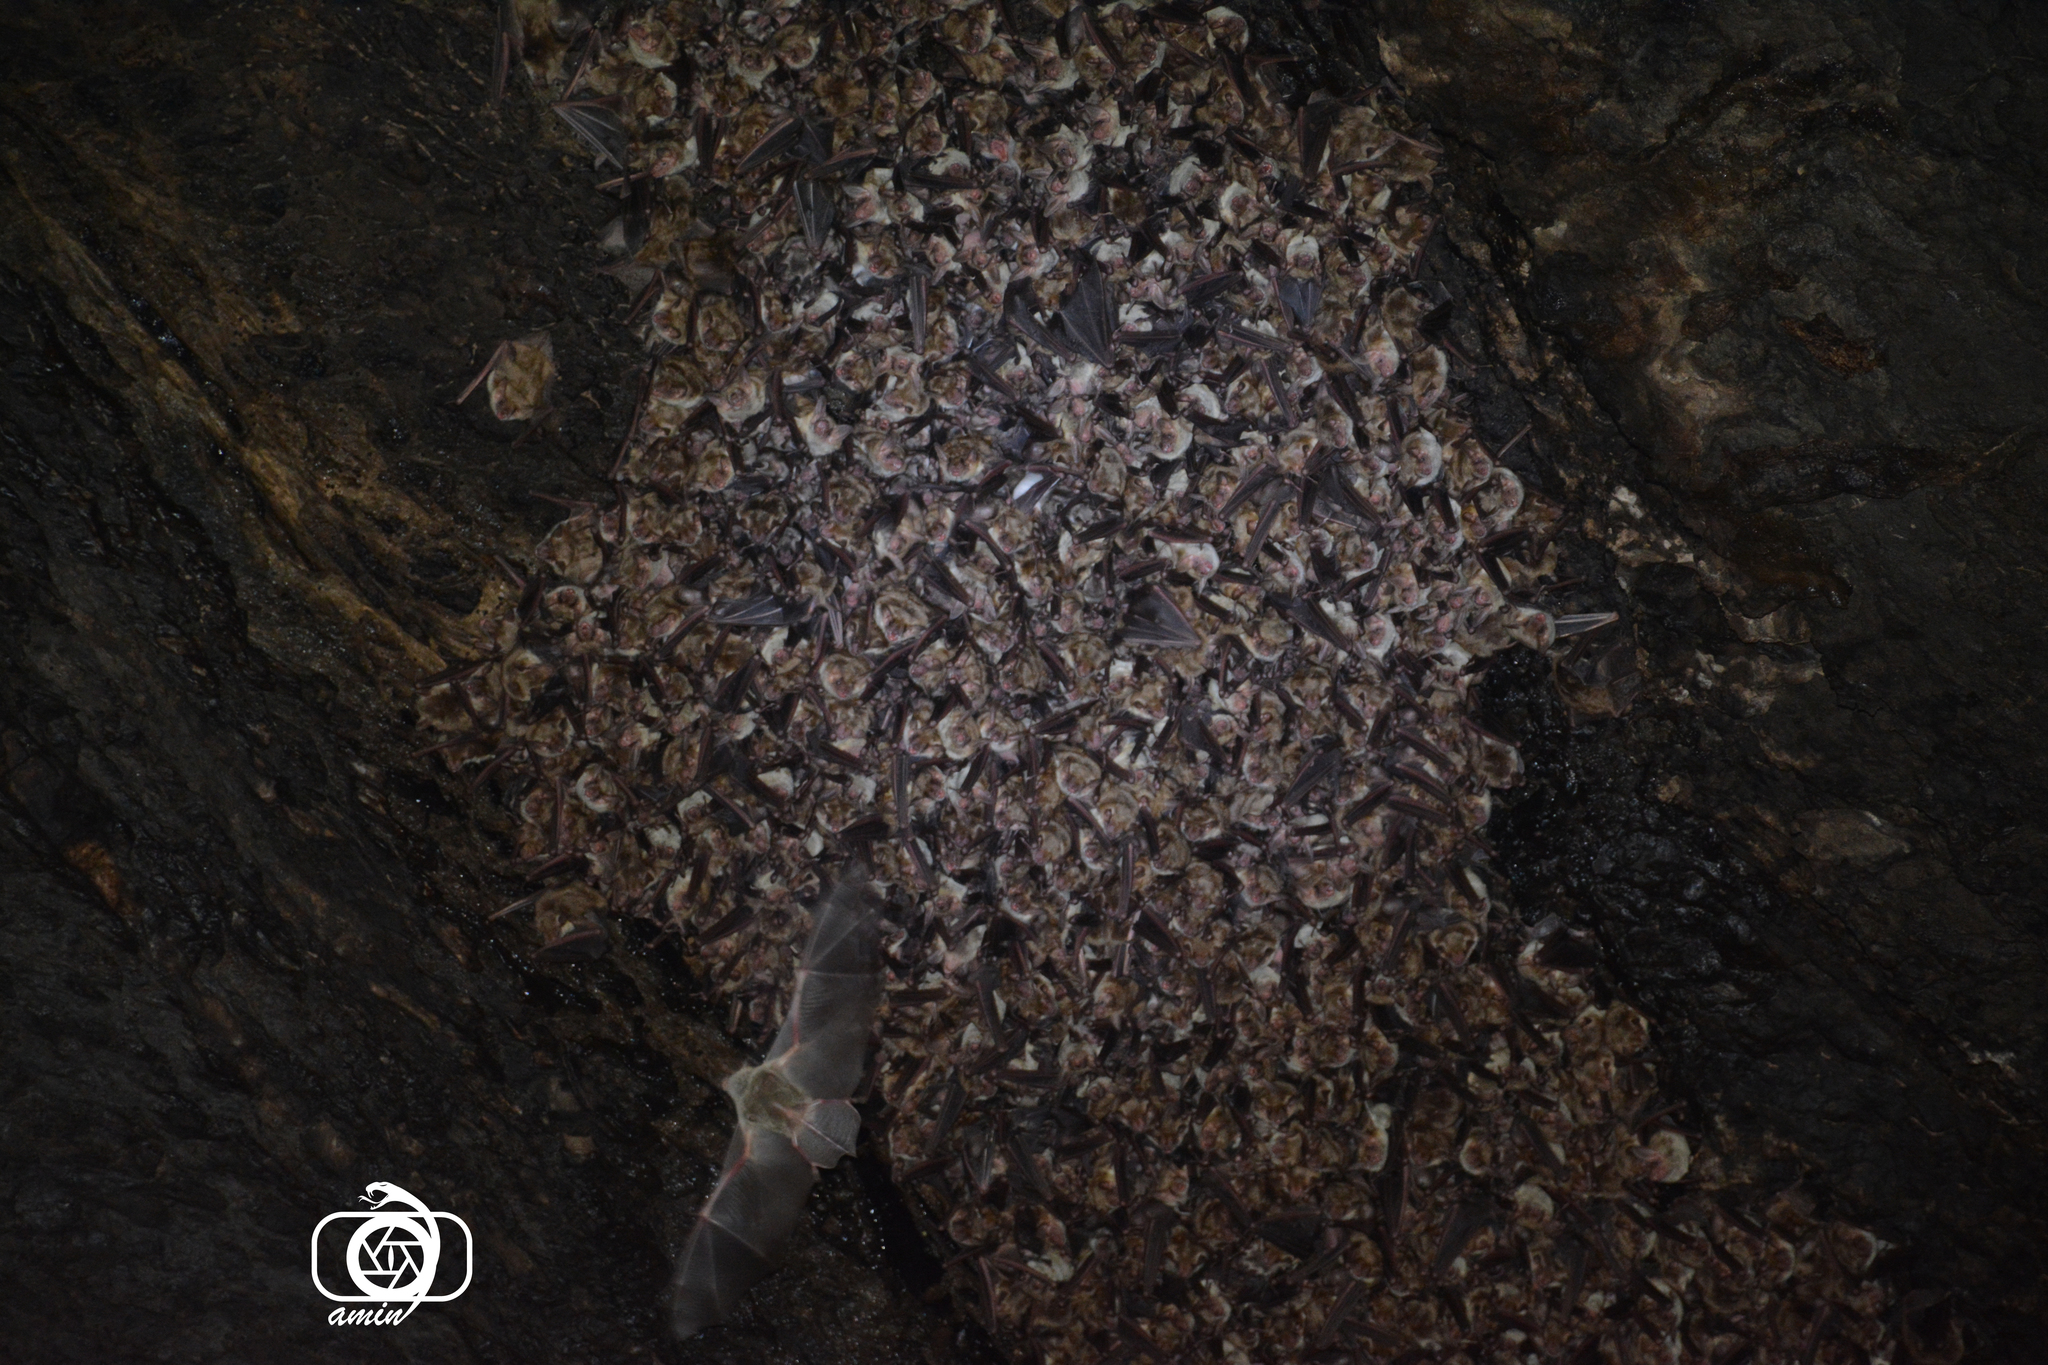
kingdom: Animalia
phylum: Chordata
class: Mammalia
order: Chiroptera
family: Vespertilionidae
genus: Myotis
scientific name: Myotis blythii
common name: Lesser mouse-eared myotis
